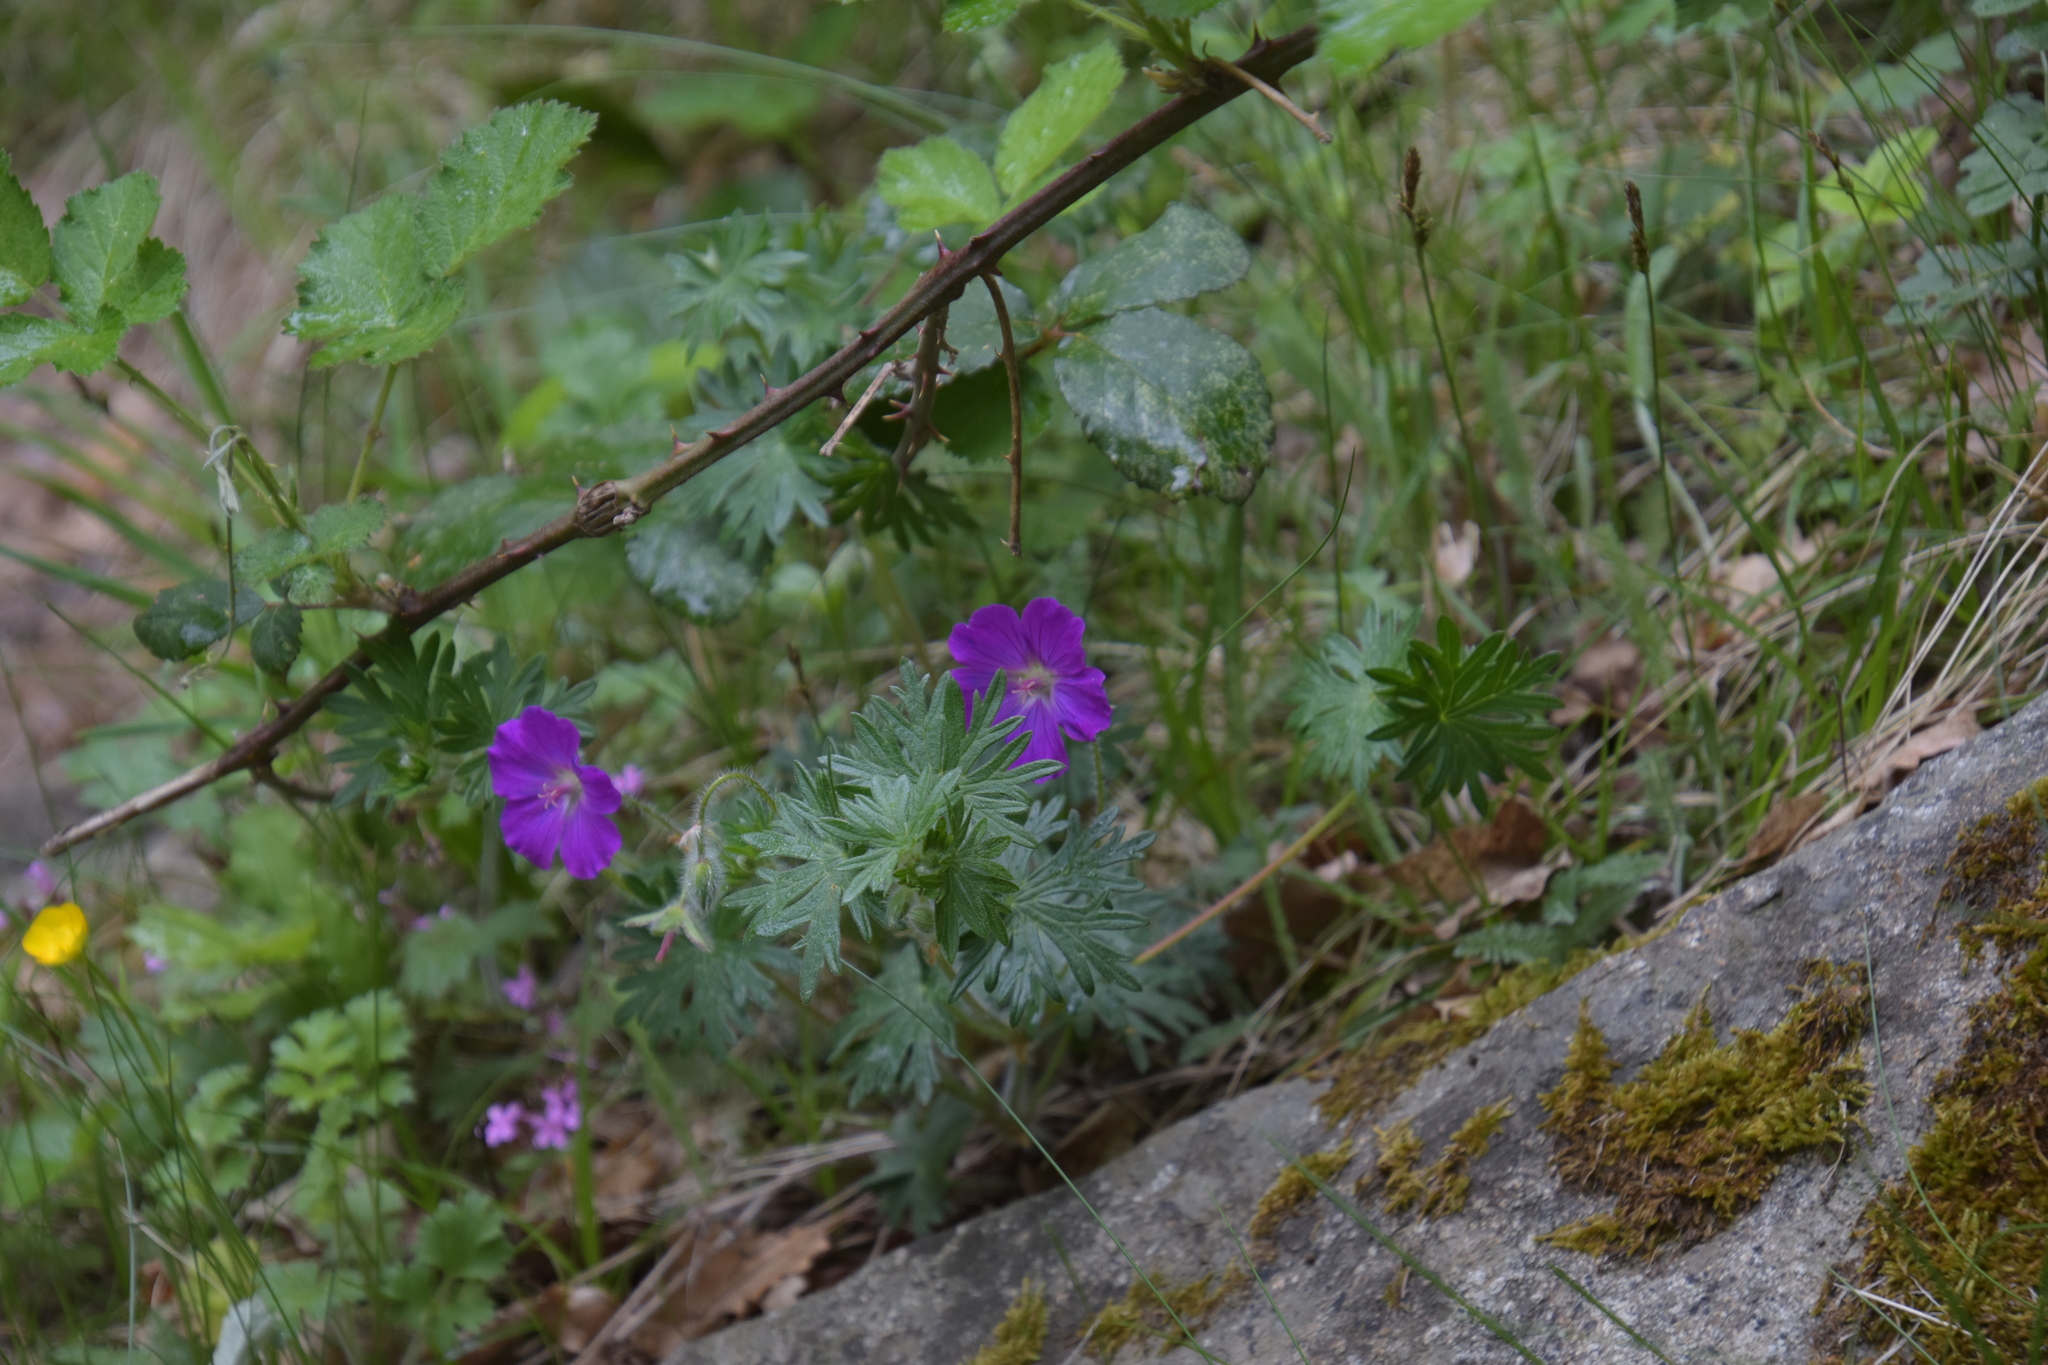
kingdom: Plantae
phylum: Tracheophyta
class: Magnoliopsida
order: Geraniales
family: Geraniaceae
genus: Geranium
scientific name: Geranium sanguineum
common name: Bloody crane's-bill
